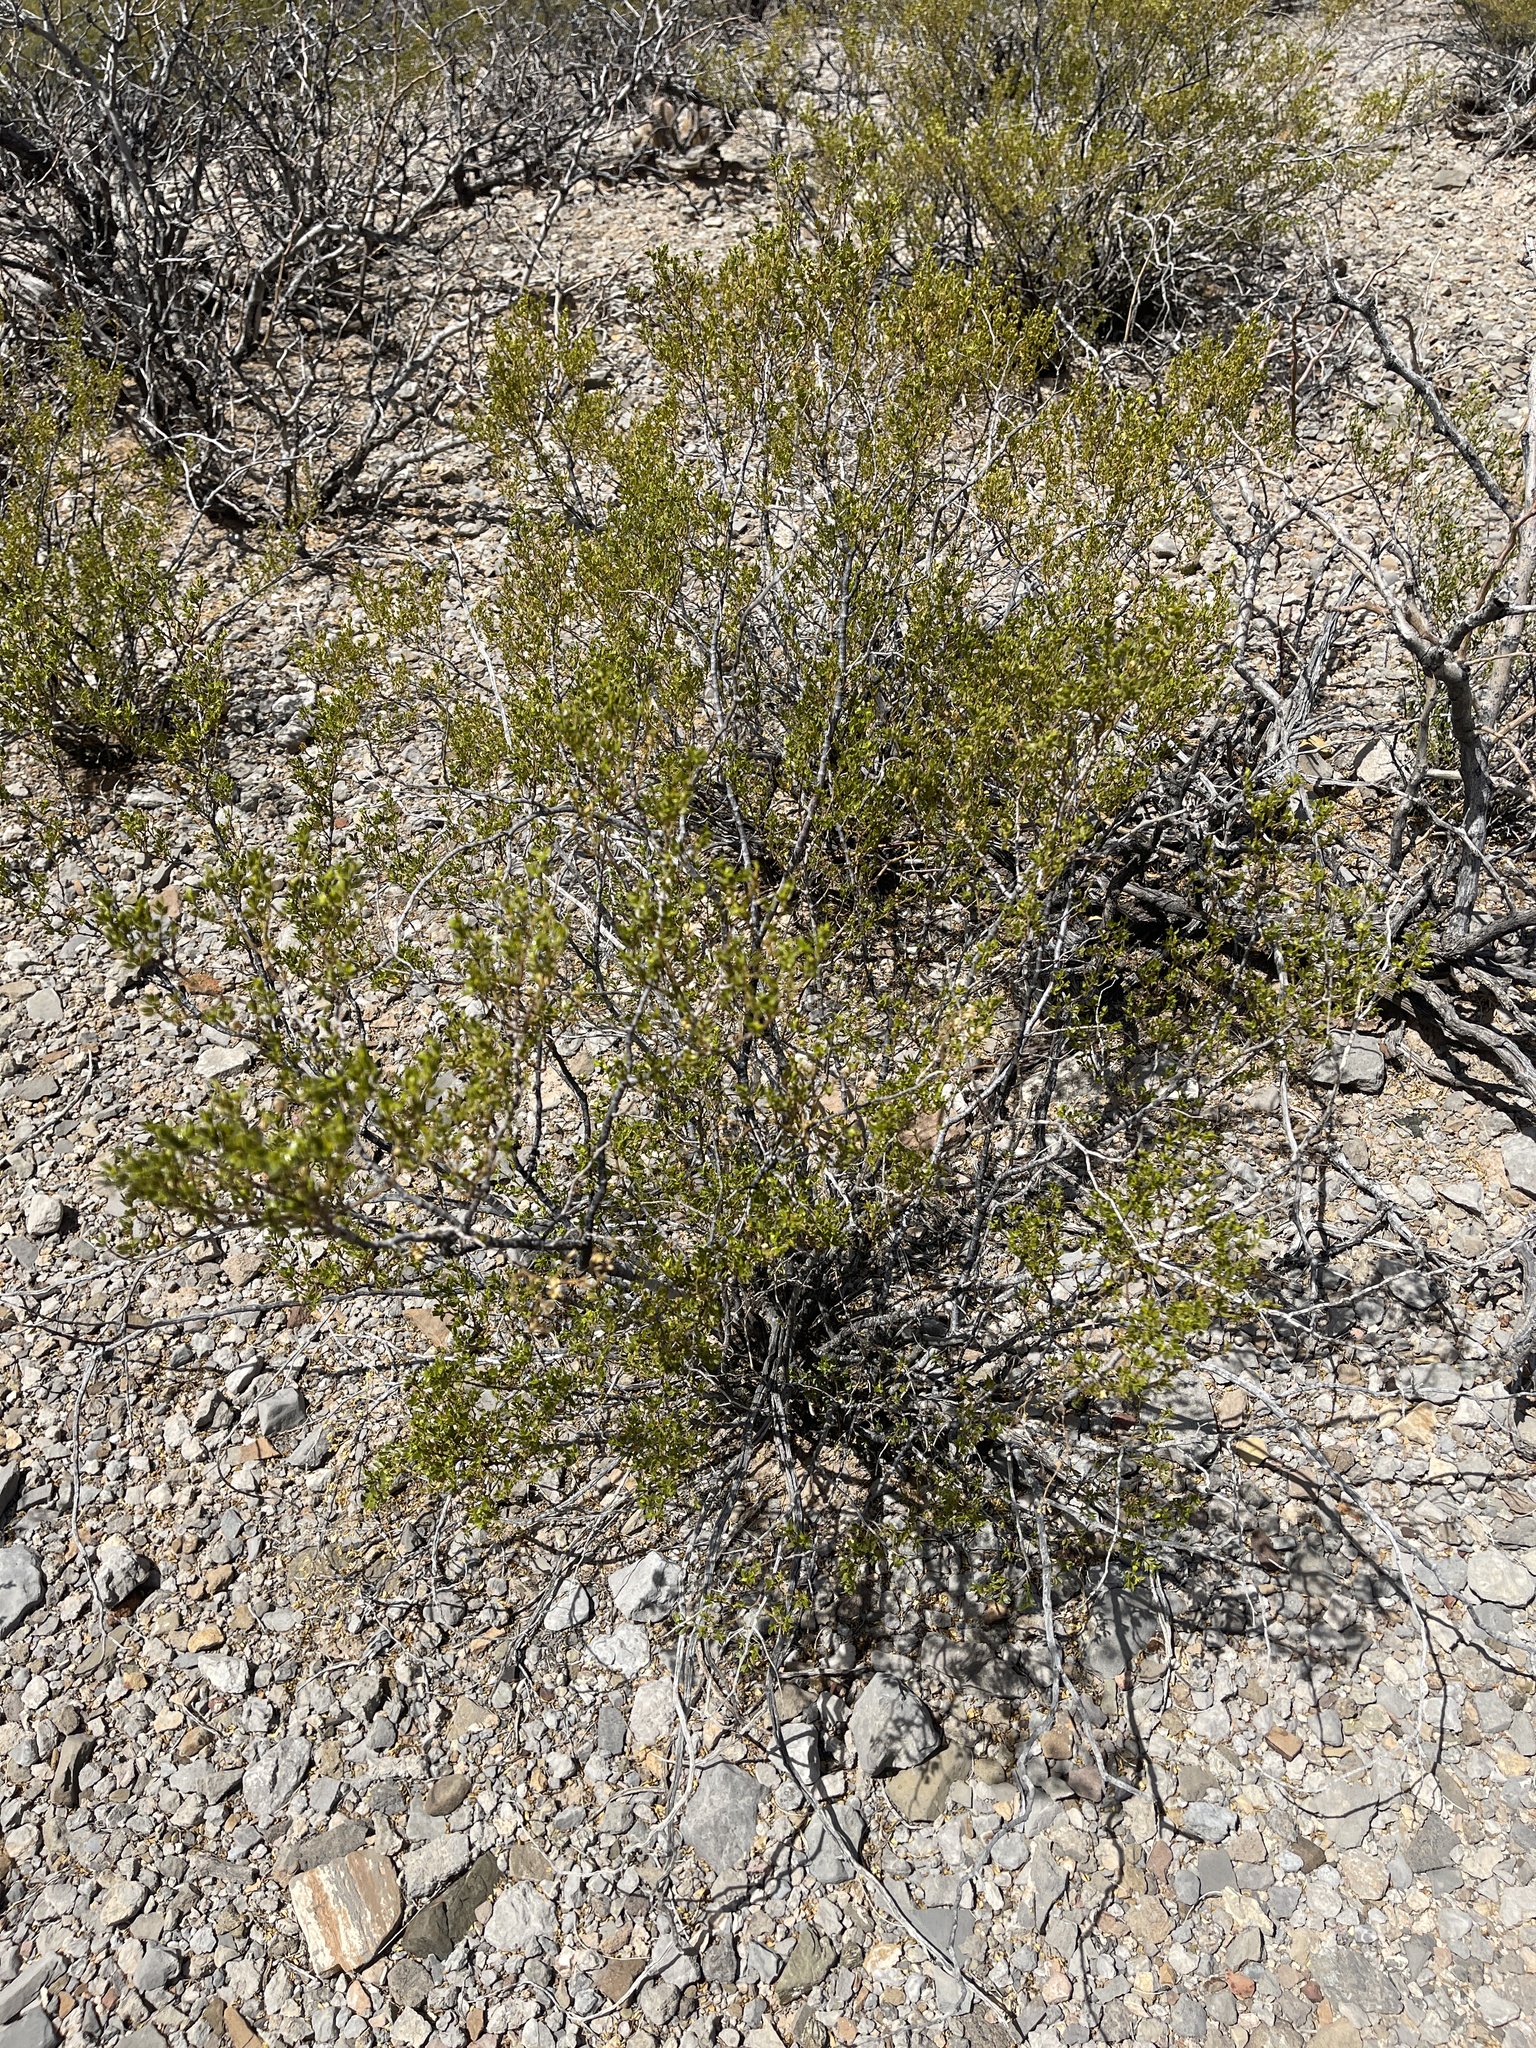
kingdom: Plantae
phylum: Tracheophyta
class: Magnoliopsida
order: Zygophyllales
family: Zygophyllaceae
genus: Larrea
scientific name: Larrea tridentata
